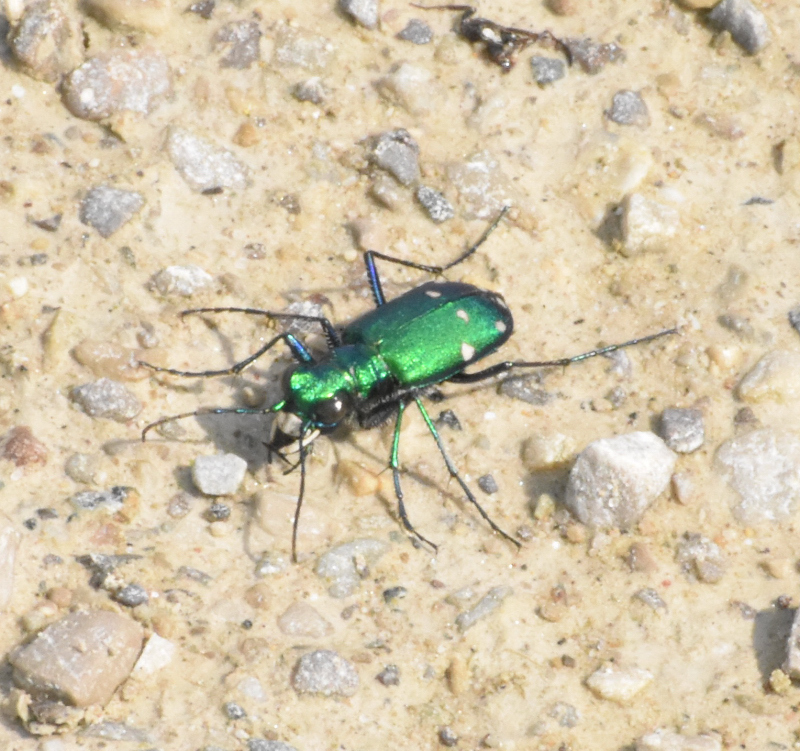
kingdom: Animalia
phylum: Arthropoda
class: Insecta
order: Coleoptera
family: Carabidae
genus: Cicindela
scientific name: Cicindela sexguttata
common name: Six-spotted tiger beetle
